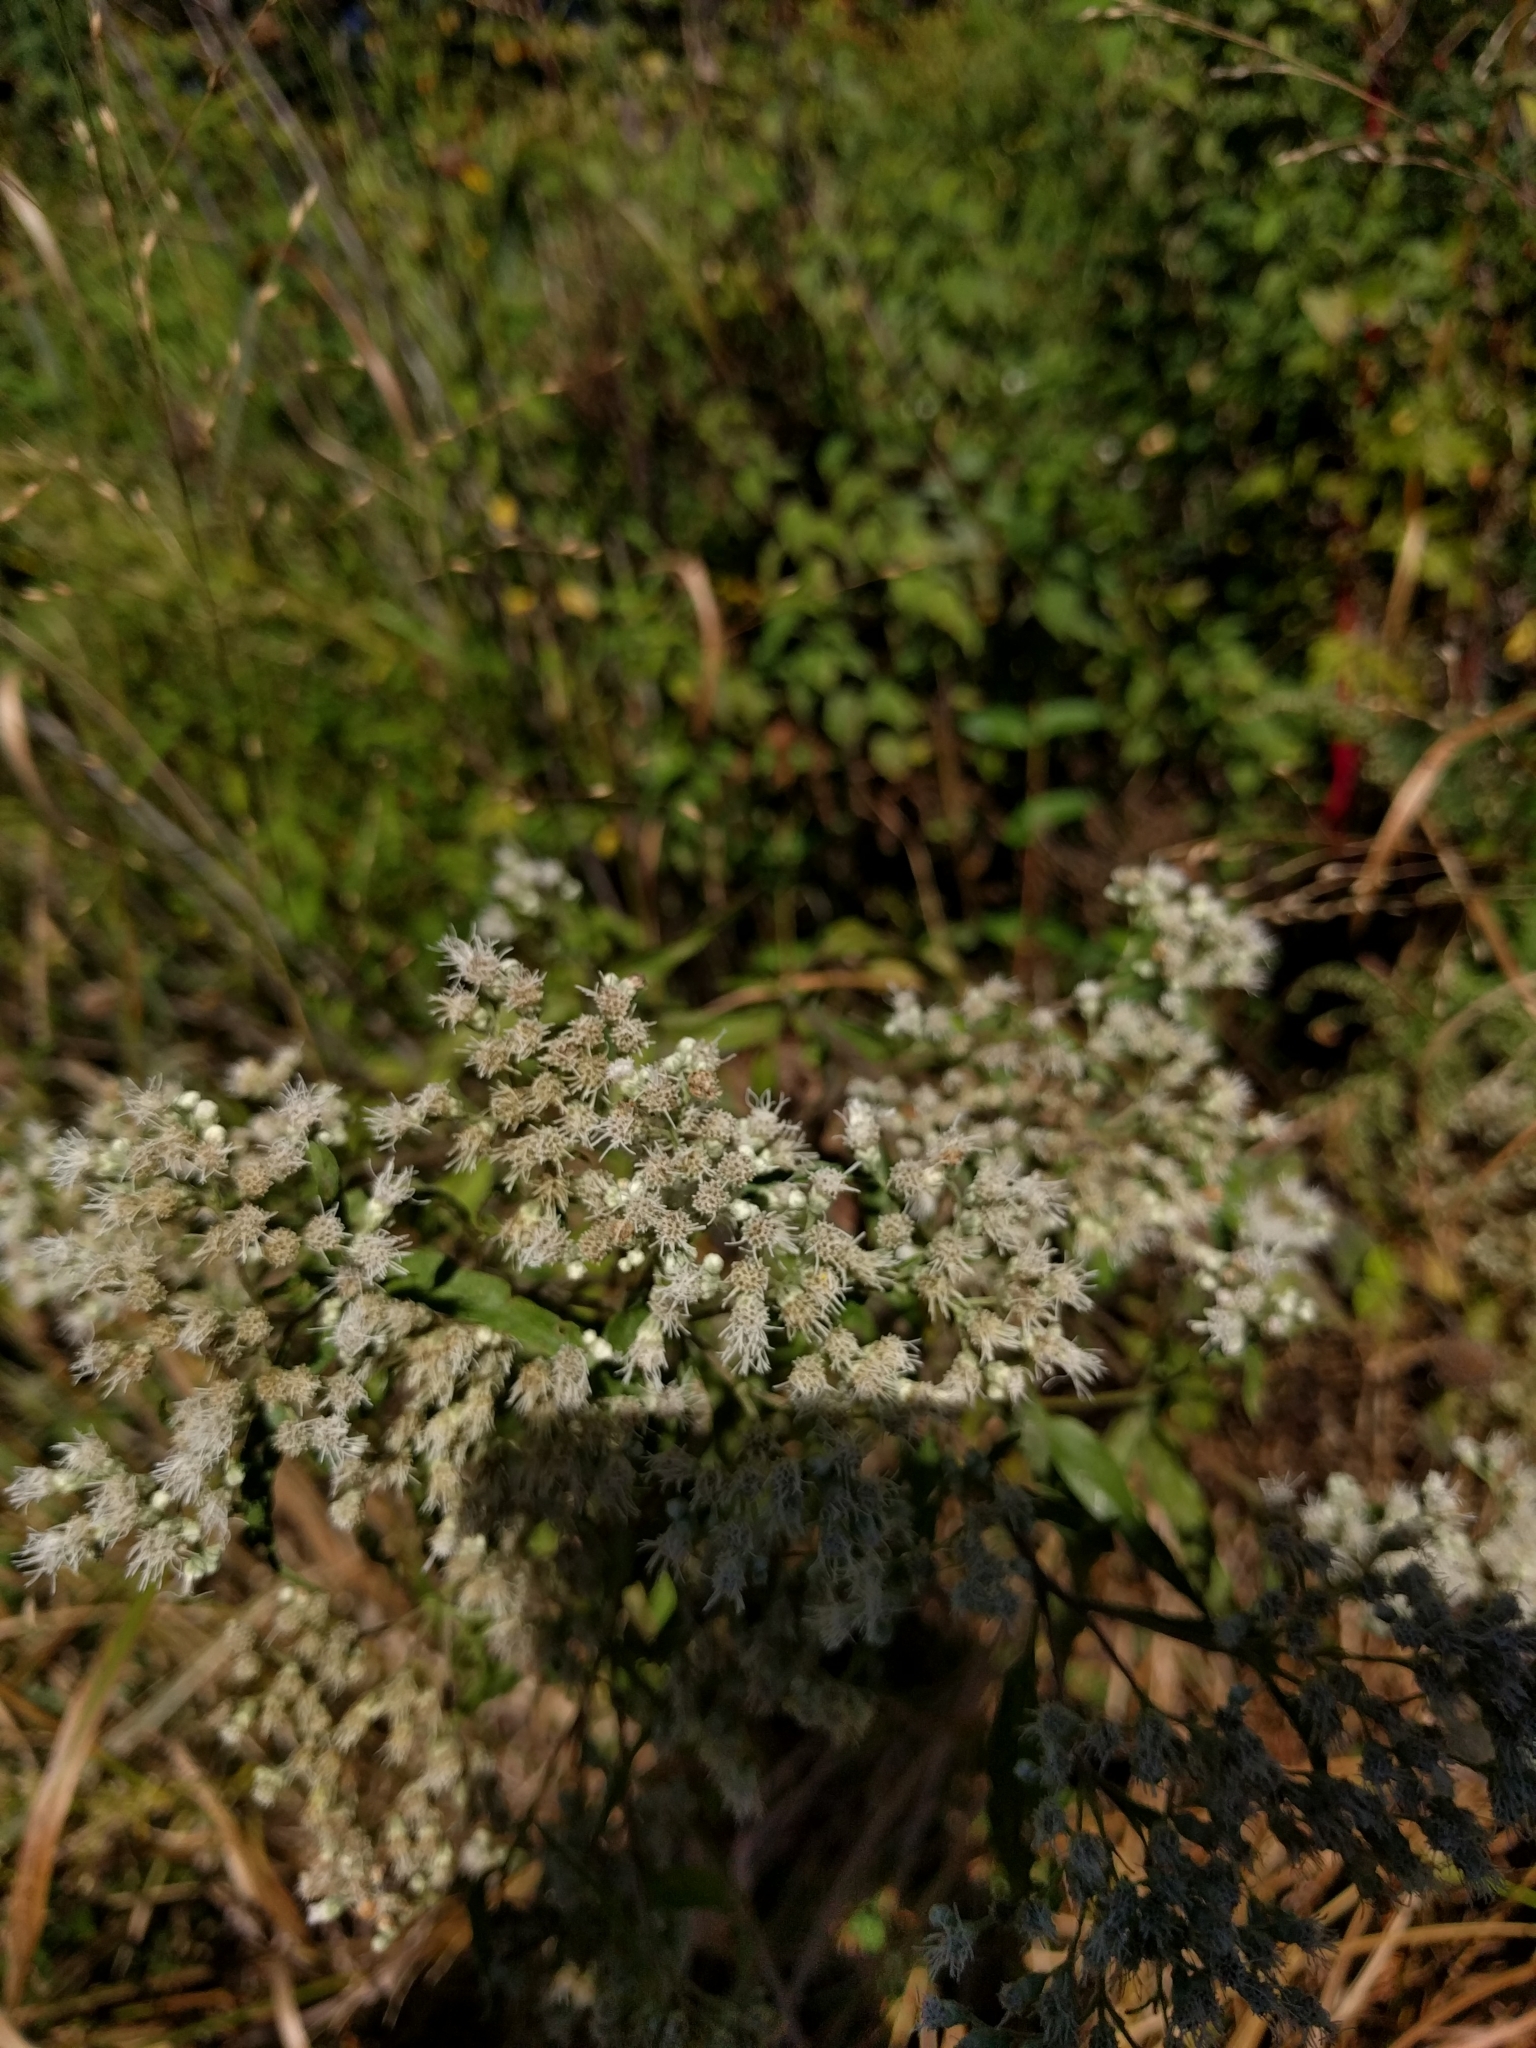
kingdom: Plantae
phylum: Tracheophyta
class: Magnoliopsida
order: Asterales
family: Asteraceae
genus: Eupatorium
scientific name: Eupatorium serotinum
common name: Late boneset
